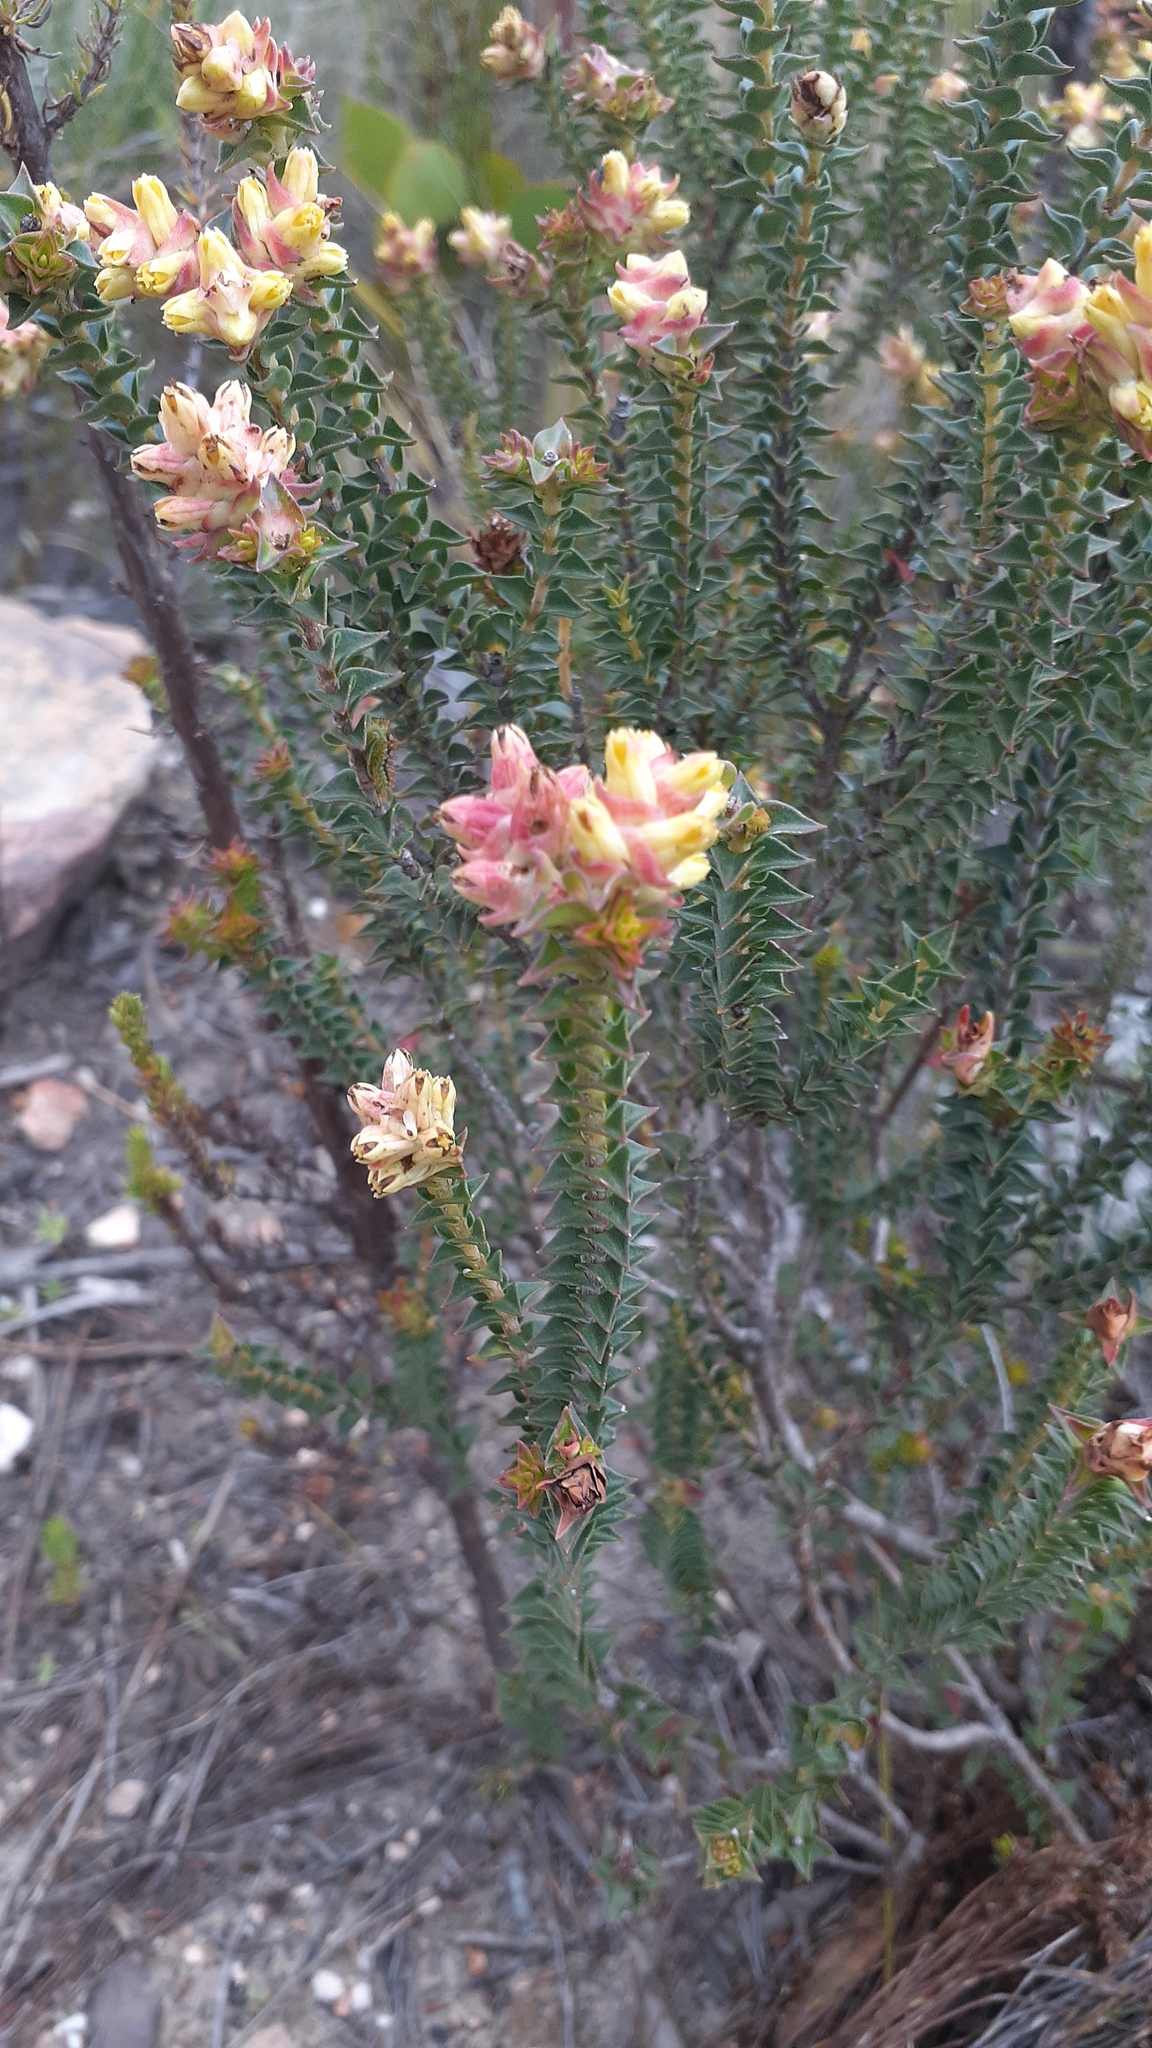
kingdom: Plantae
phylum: Tracheophyta
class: Magnoliopsida
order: Myrtales
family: Penaeaceae
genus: Penaea
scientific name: Penaea mucronata
